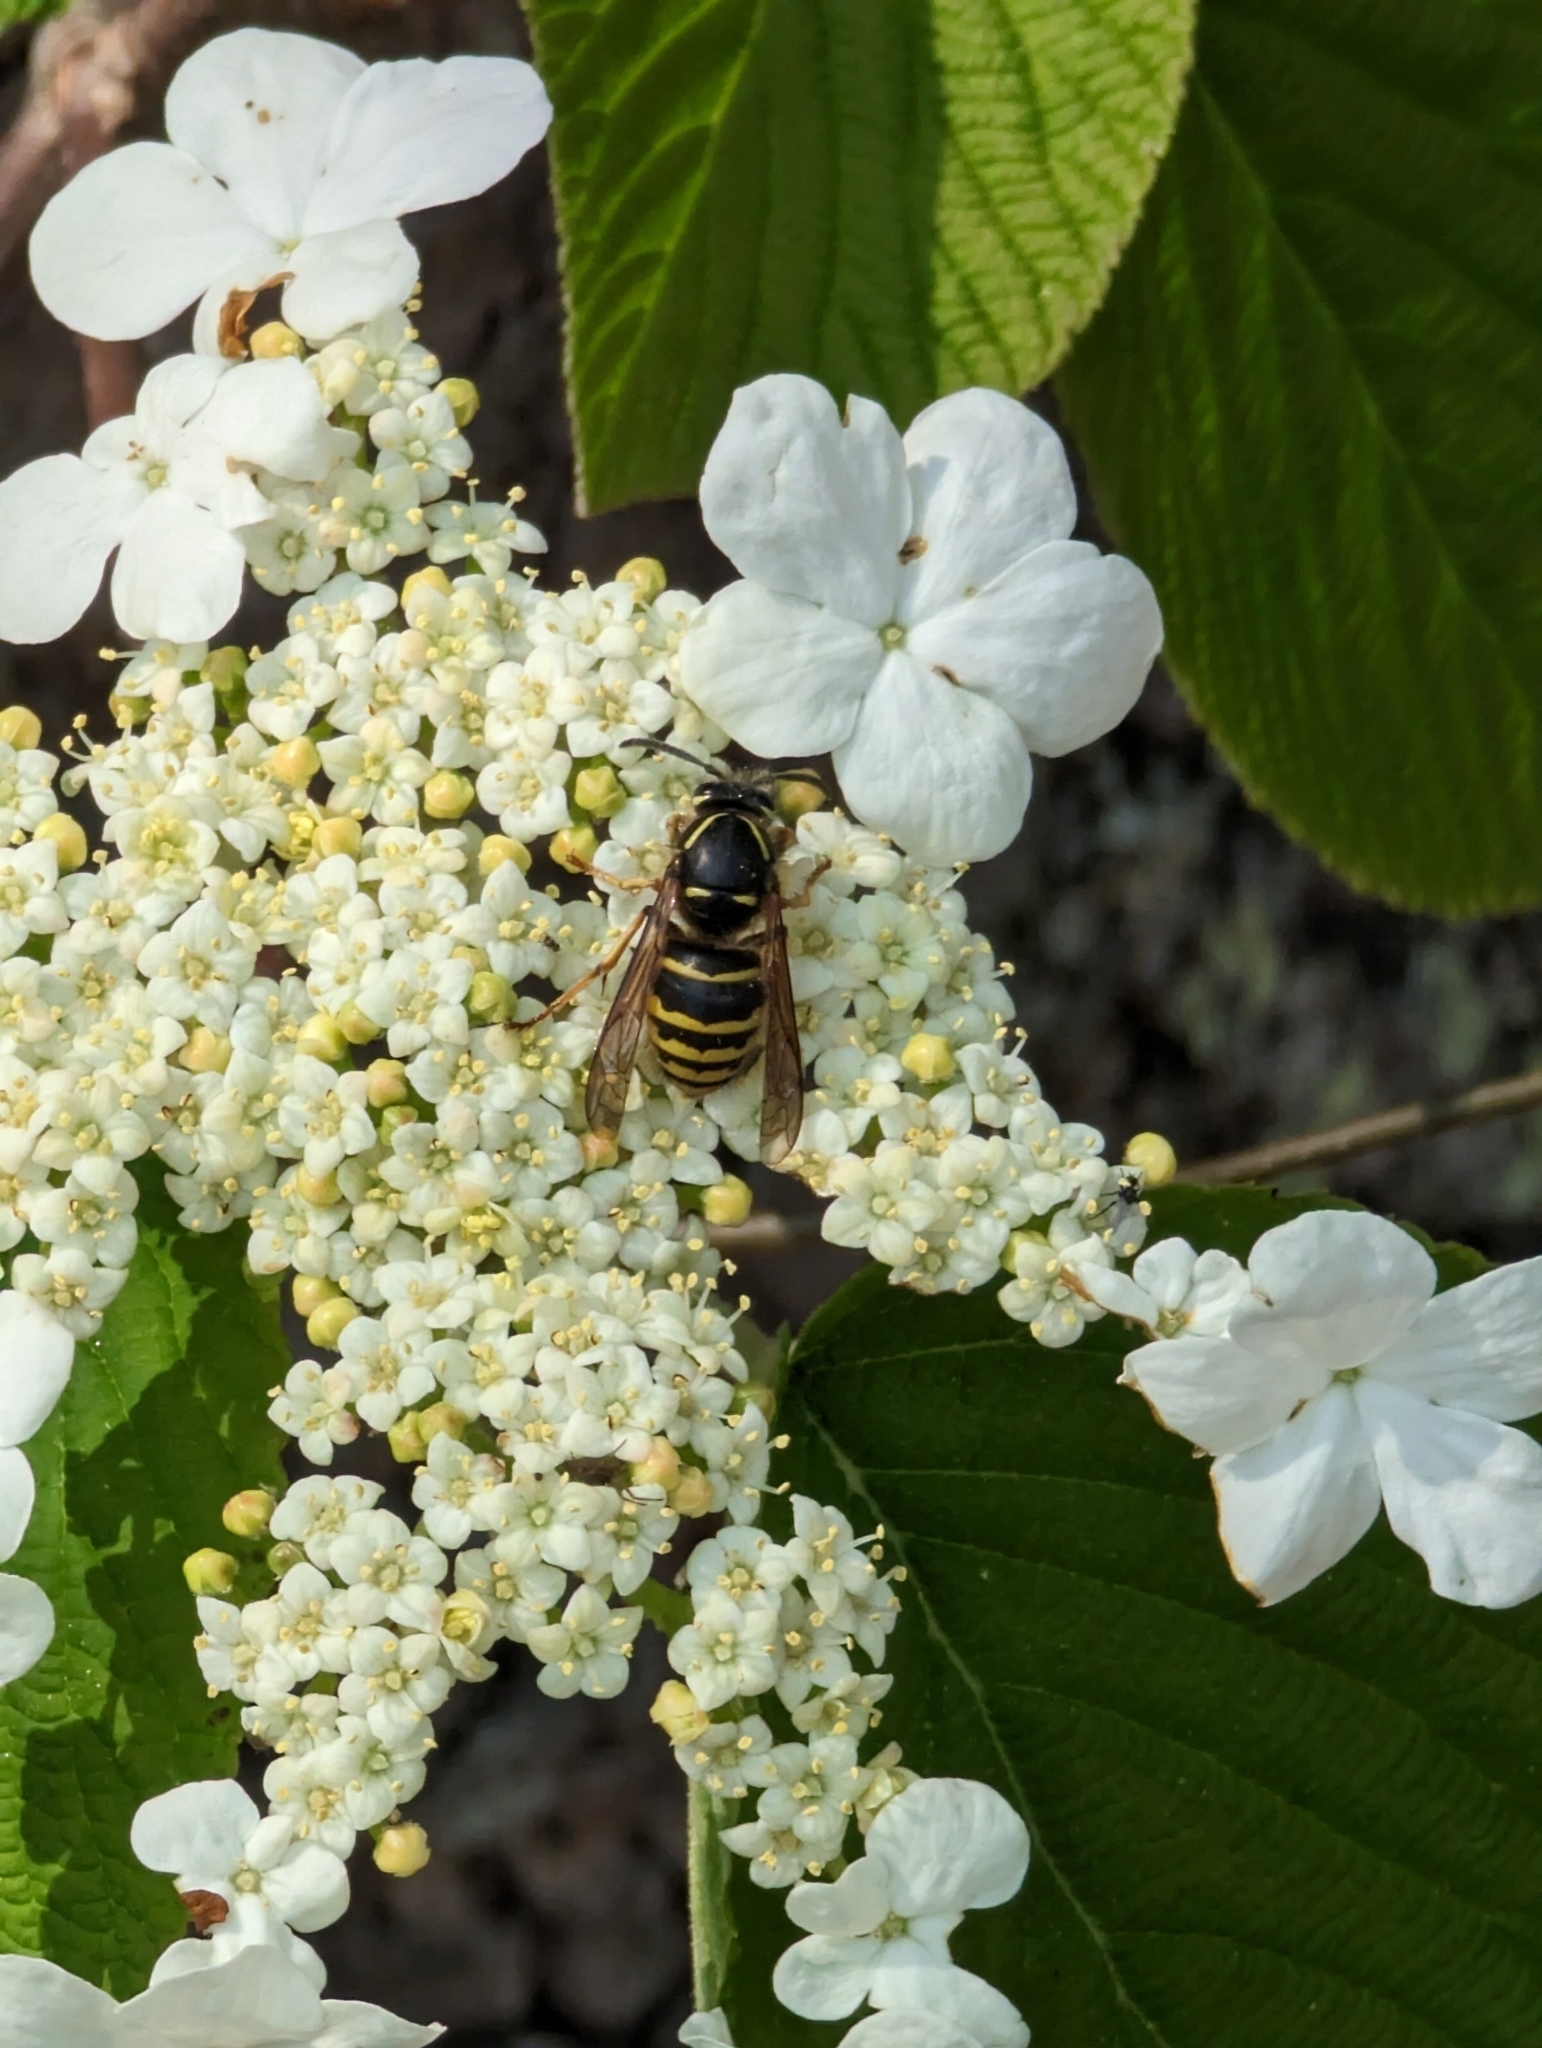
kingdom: Animalia
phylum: Arthropoda
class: Insecta
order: Hymenoptera
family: Vespidae
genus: Dolichovespula
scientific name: Dolichovespula norvegicoides
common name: Northern aerial yellowjacket
